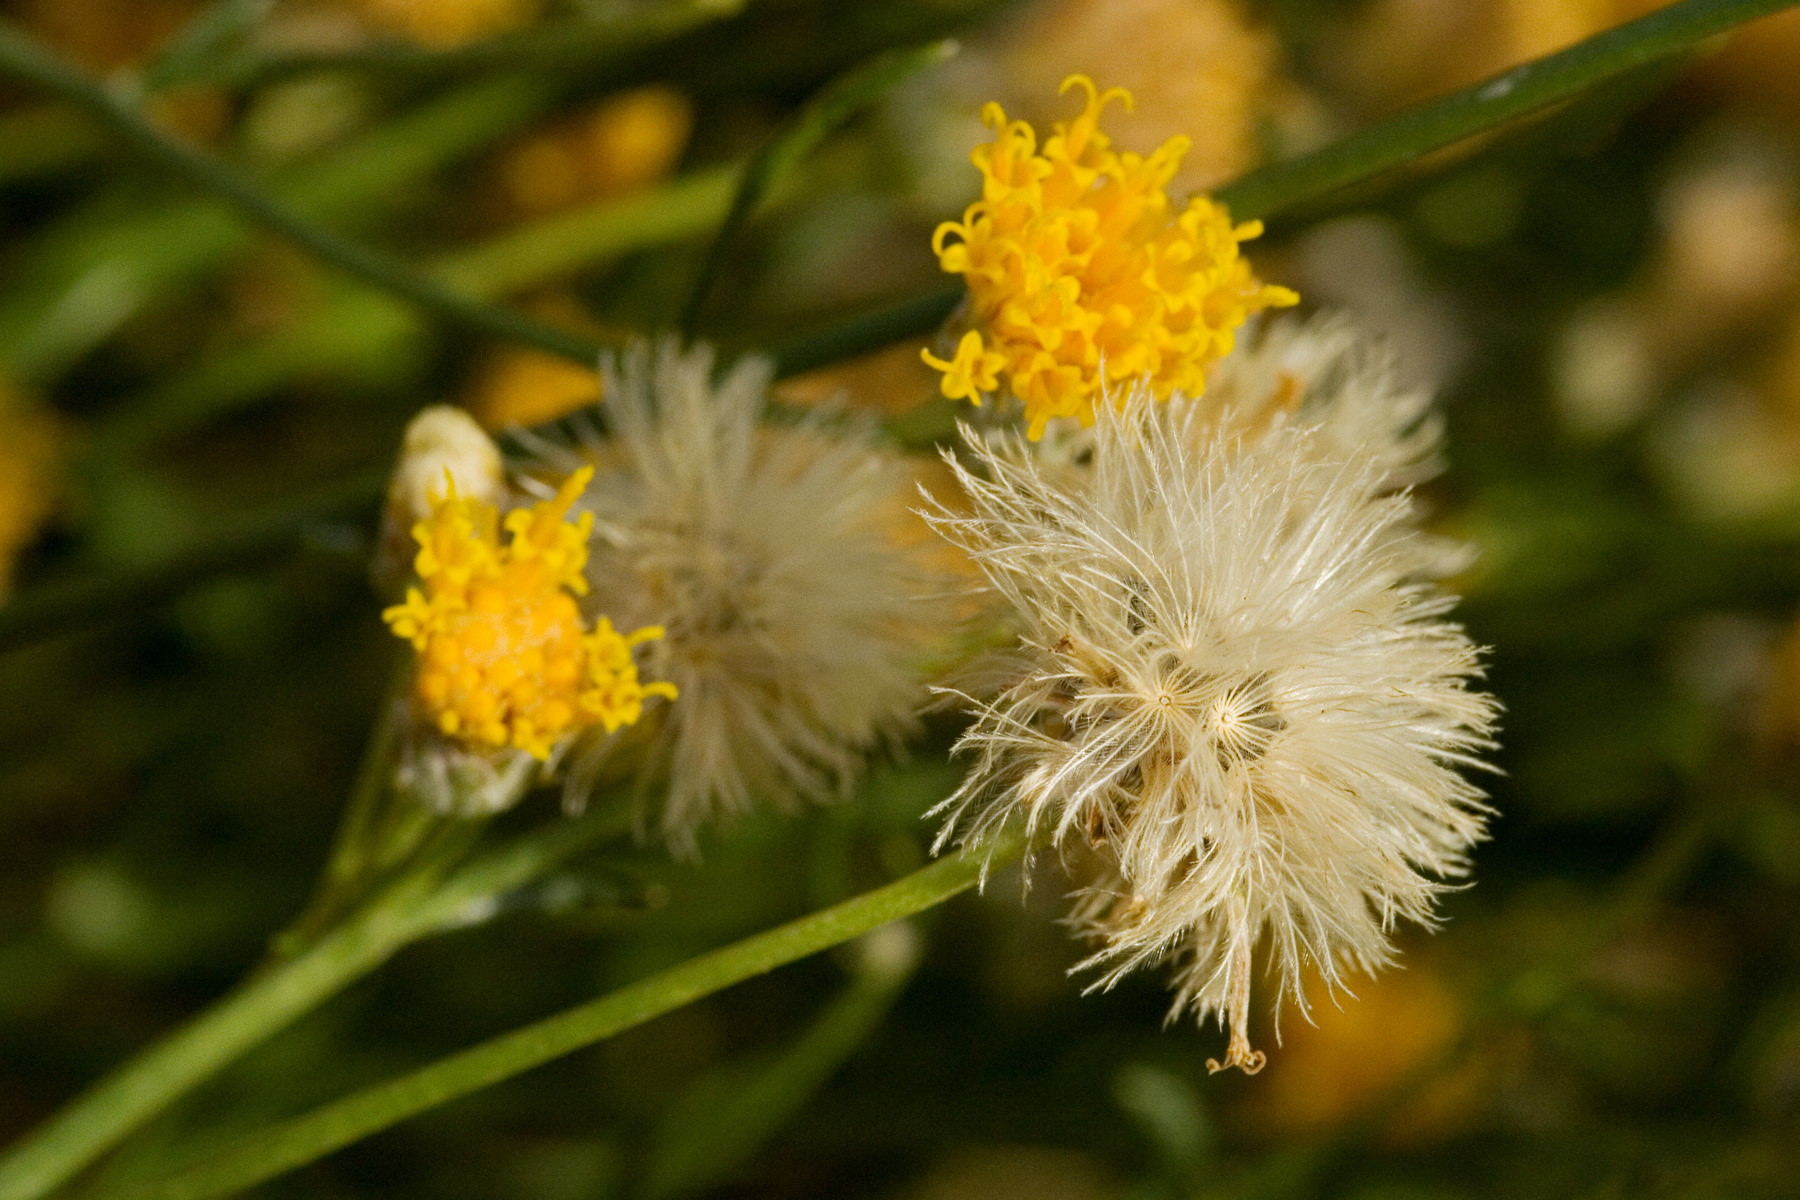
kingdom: Plantae
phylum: Tracheophyta
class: Magnoliopsida
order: Asterales
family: Asteraceae
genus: Bebbia
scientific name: Bebbia juncea
